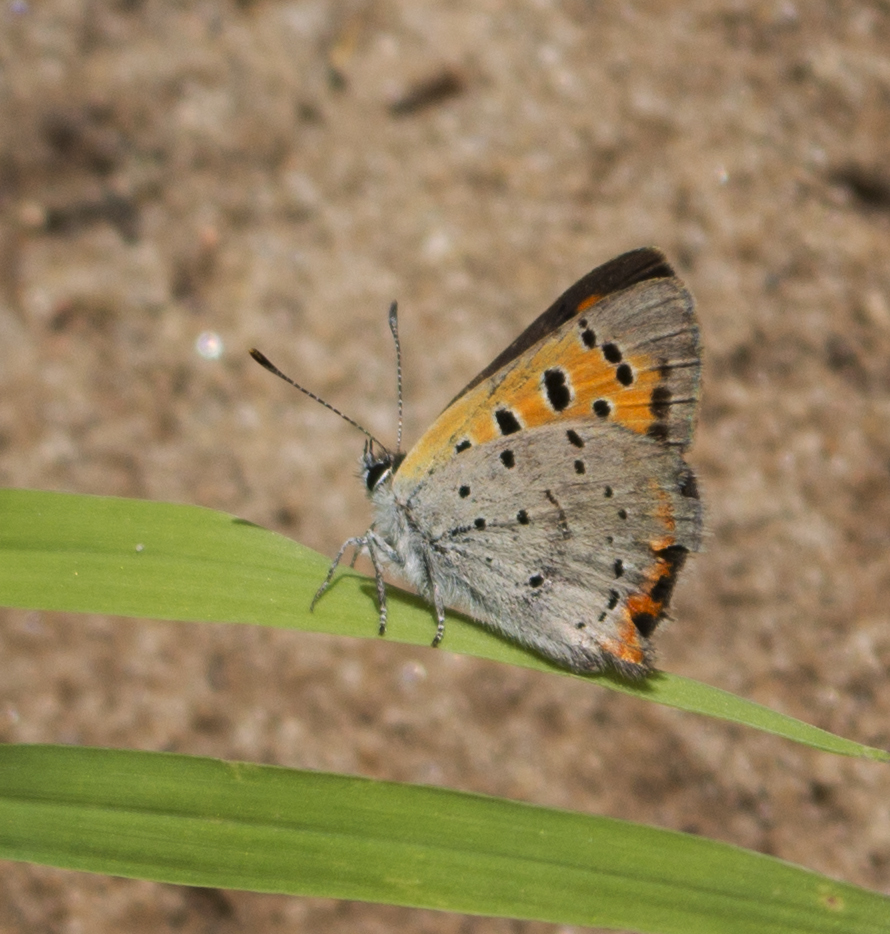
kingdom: Animalia
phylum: Arthropoda
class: Insecta
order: Lepidoptera
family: Lycaenidae
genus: Lycaena
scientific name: Lycaena hypophlaeas
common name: American copper
